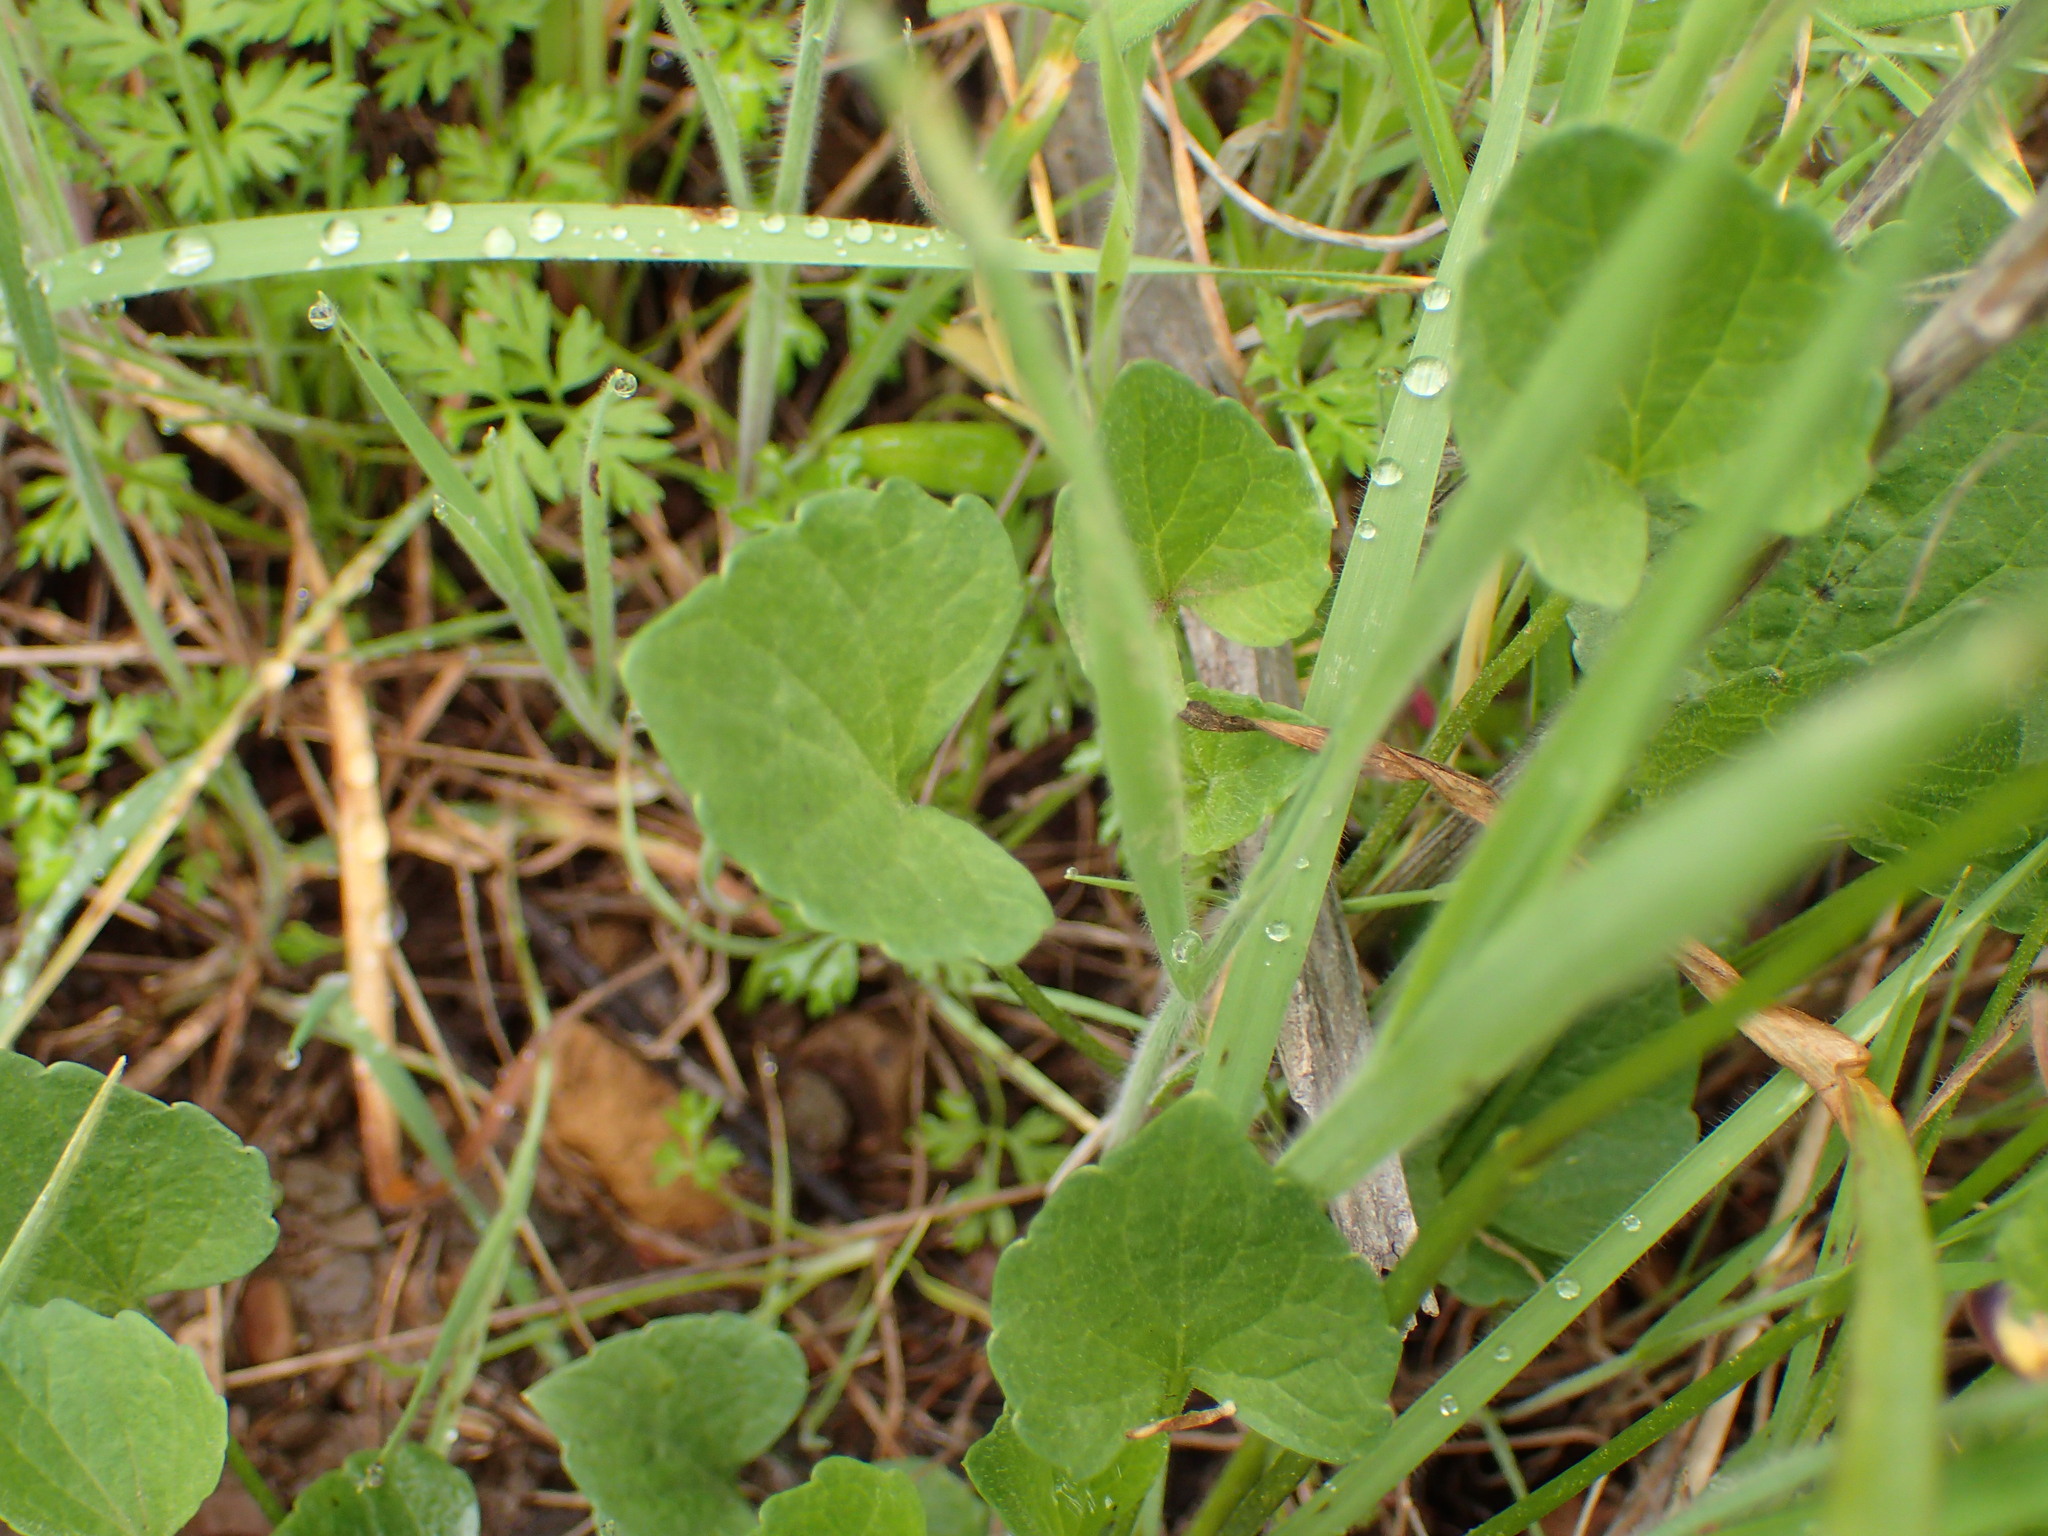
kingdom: Plantae
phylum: Tracheophyta
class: Magnoliopsida
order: Malpighiales
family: Violaceae
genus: Viola
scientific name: Viola pedunculata
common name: California golden violet
